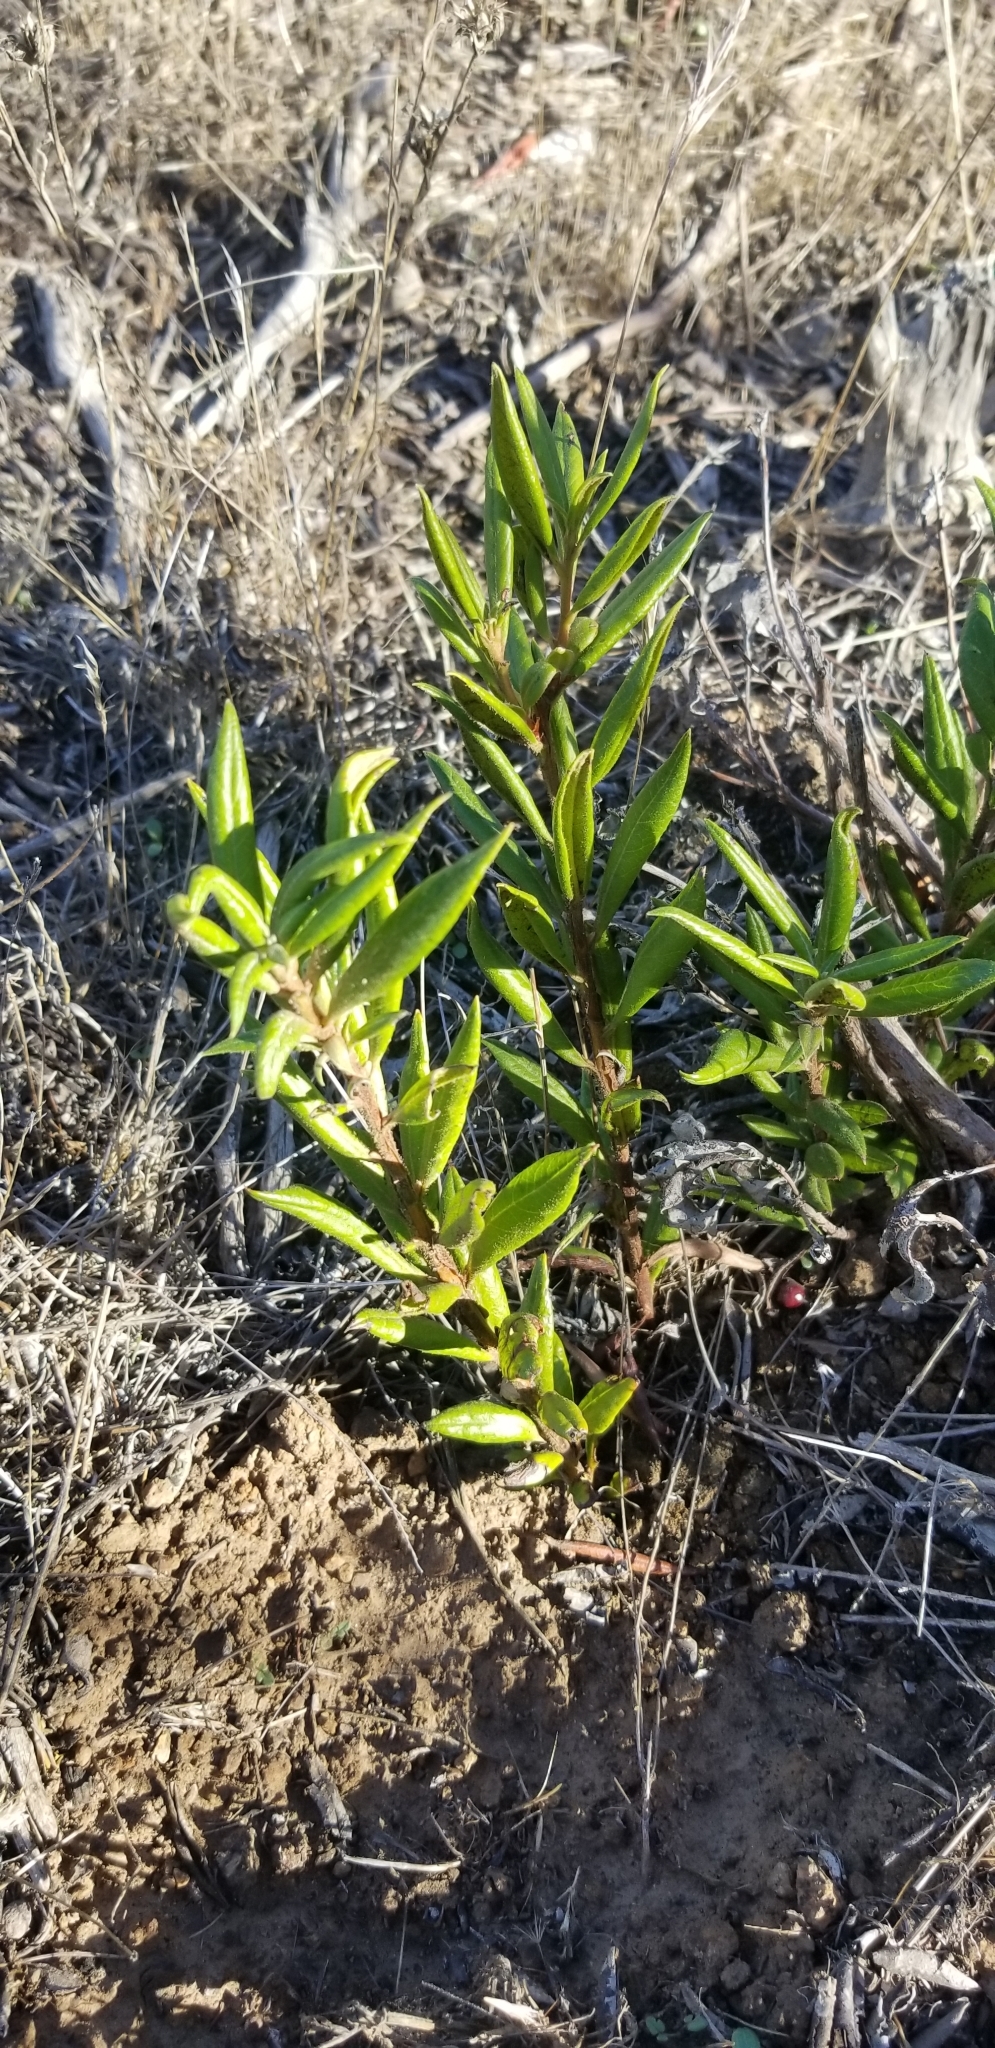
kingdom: Plantae
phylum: Tracheophyta
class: Magnoliopsida
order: Ericales
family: Ericaceae
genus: Arctostaphylos
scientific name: Arctostaphylos bicolor
